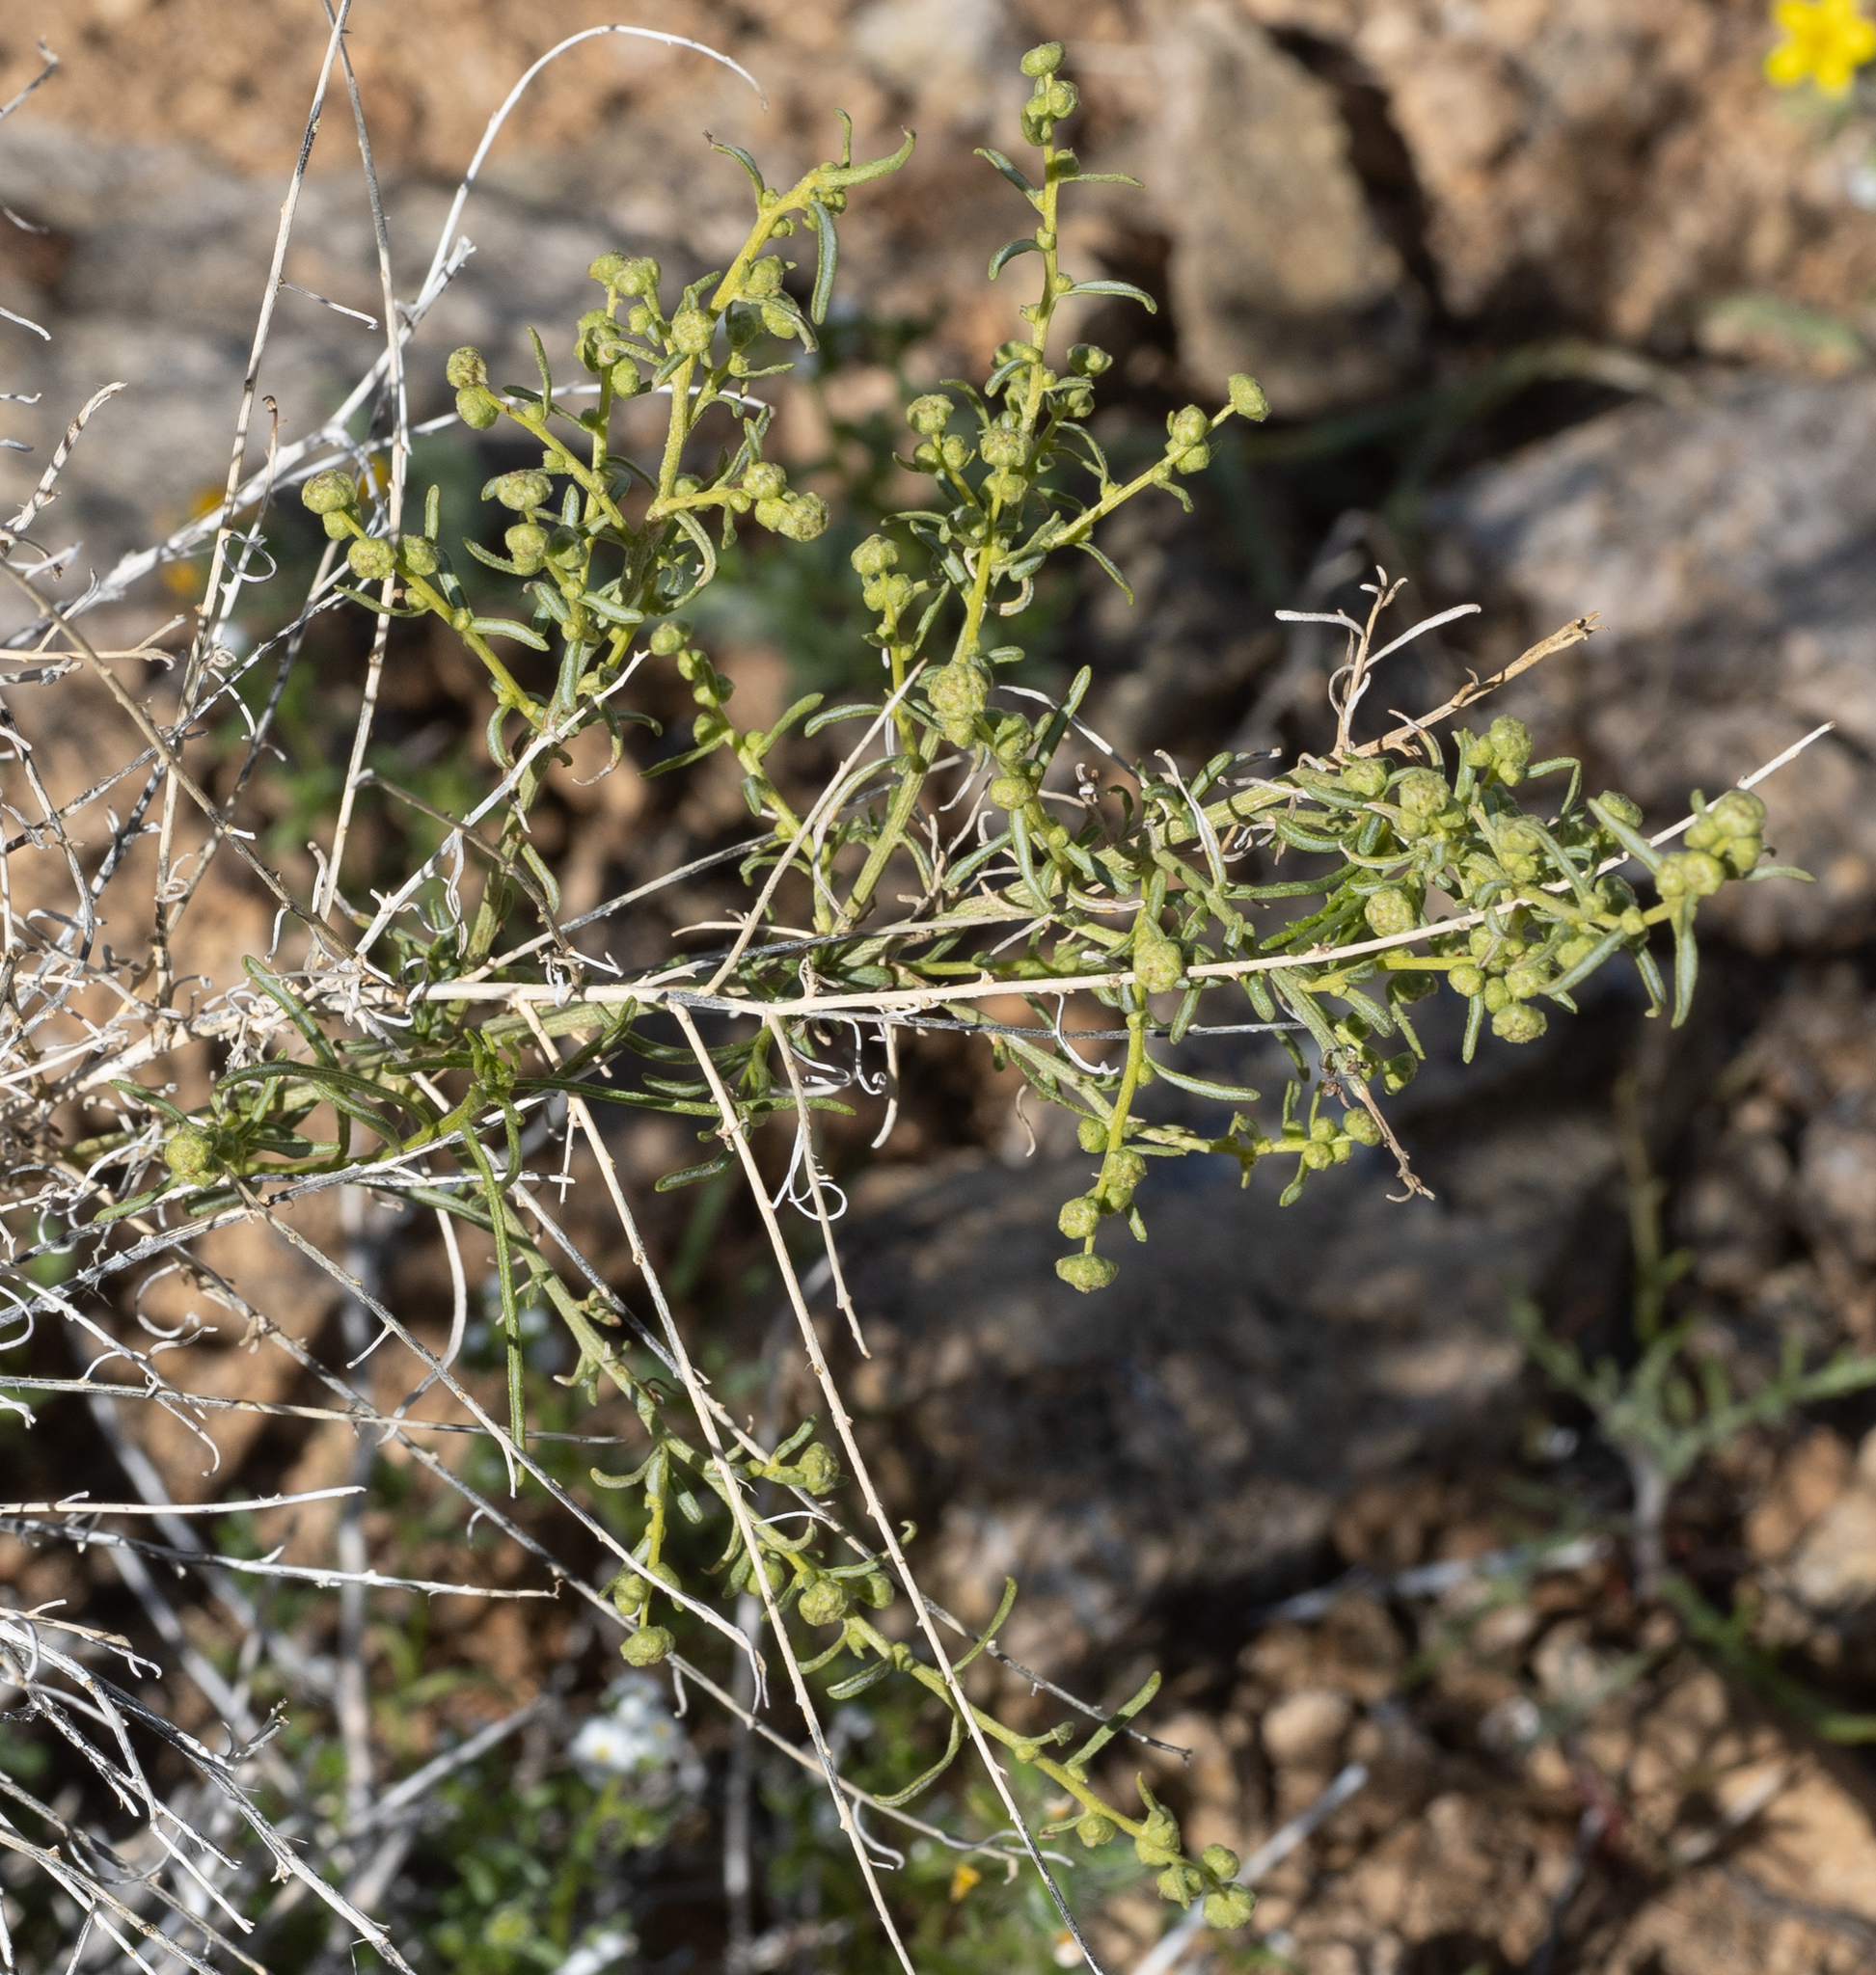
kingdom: Plantae
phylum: Tracheophyta
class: Magnoliopsida
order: Asterales
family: Asteraceae
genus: Ambrosia
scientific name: Ambrosia salsola
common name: Burrobrush
